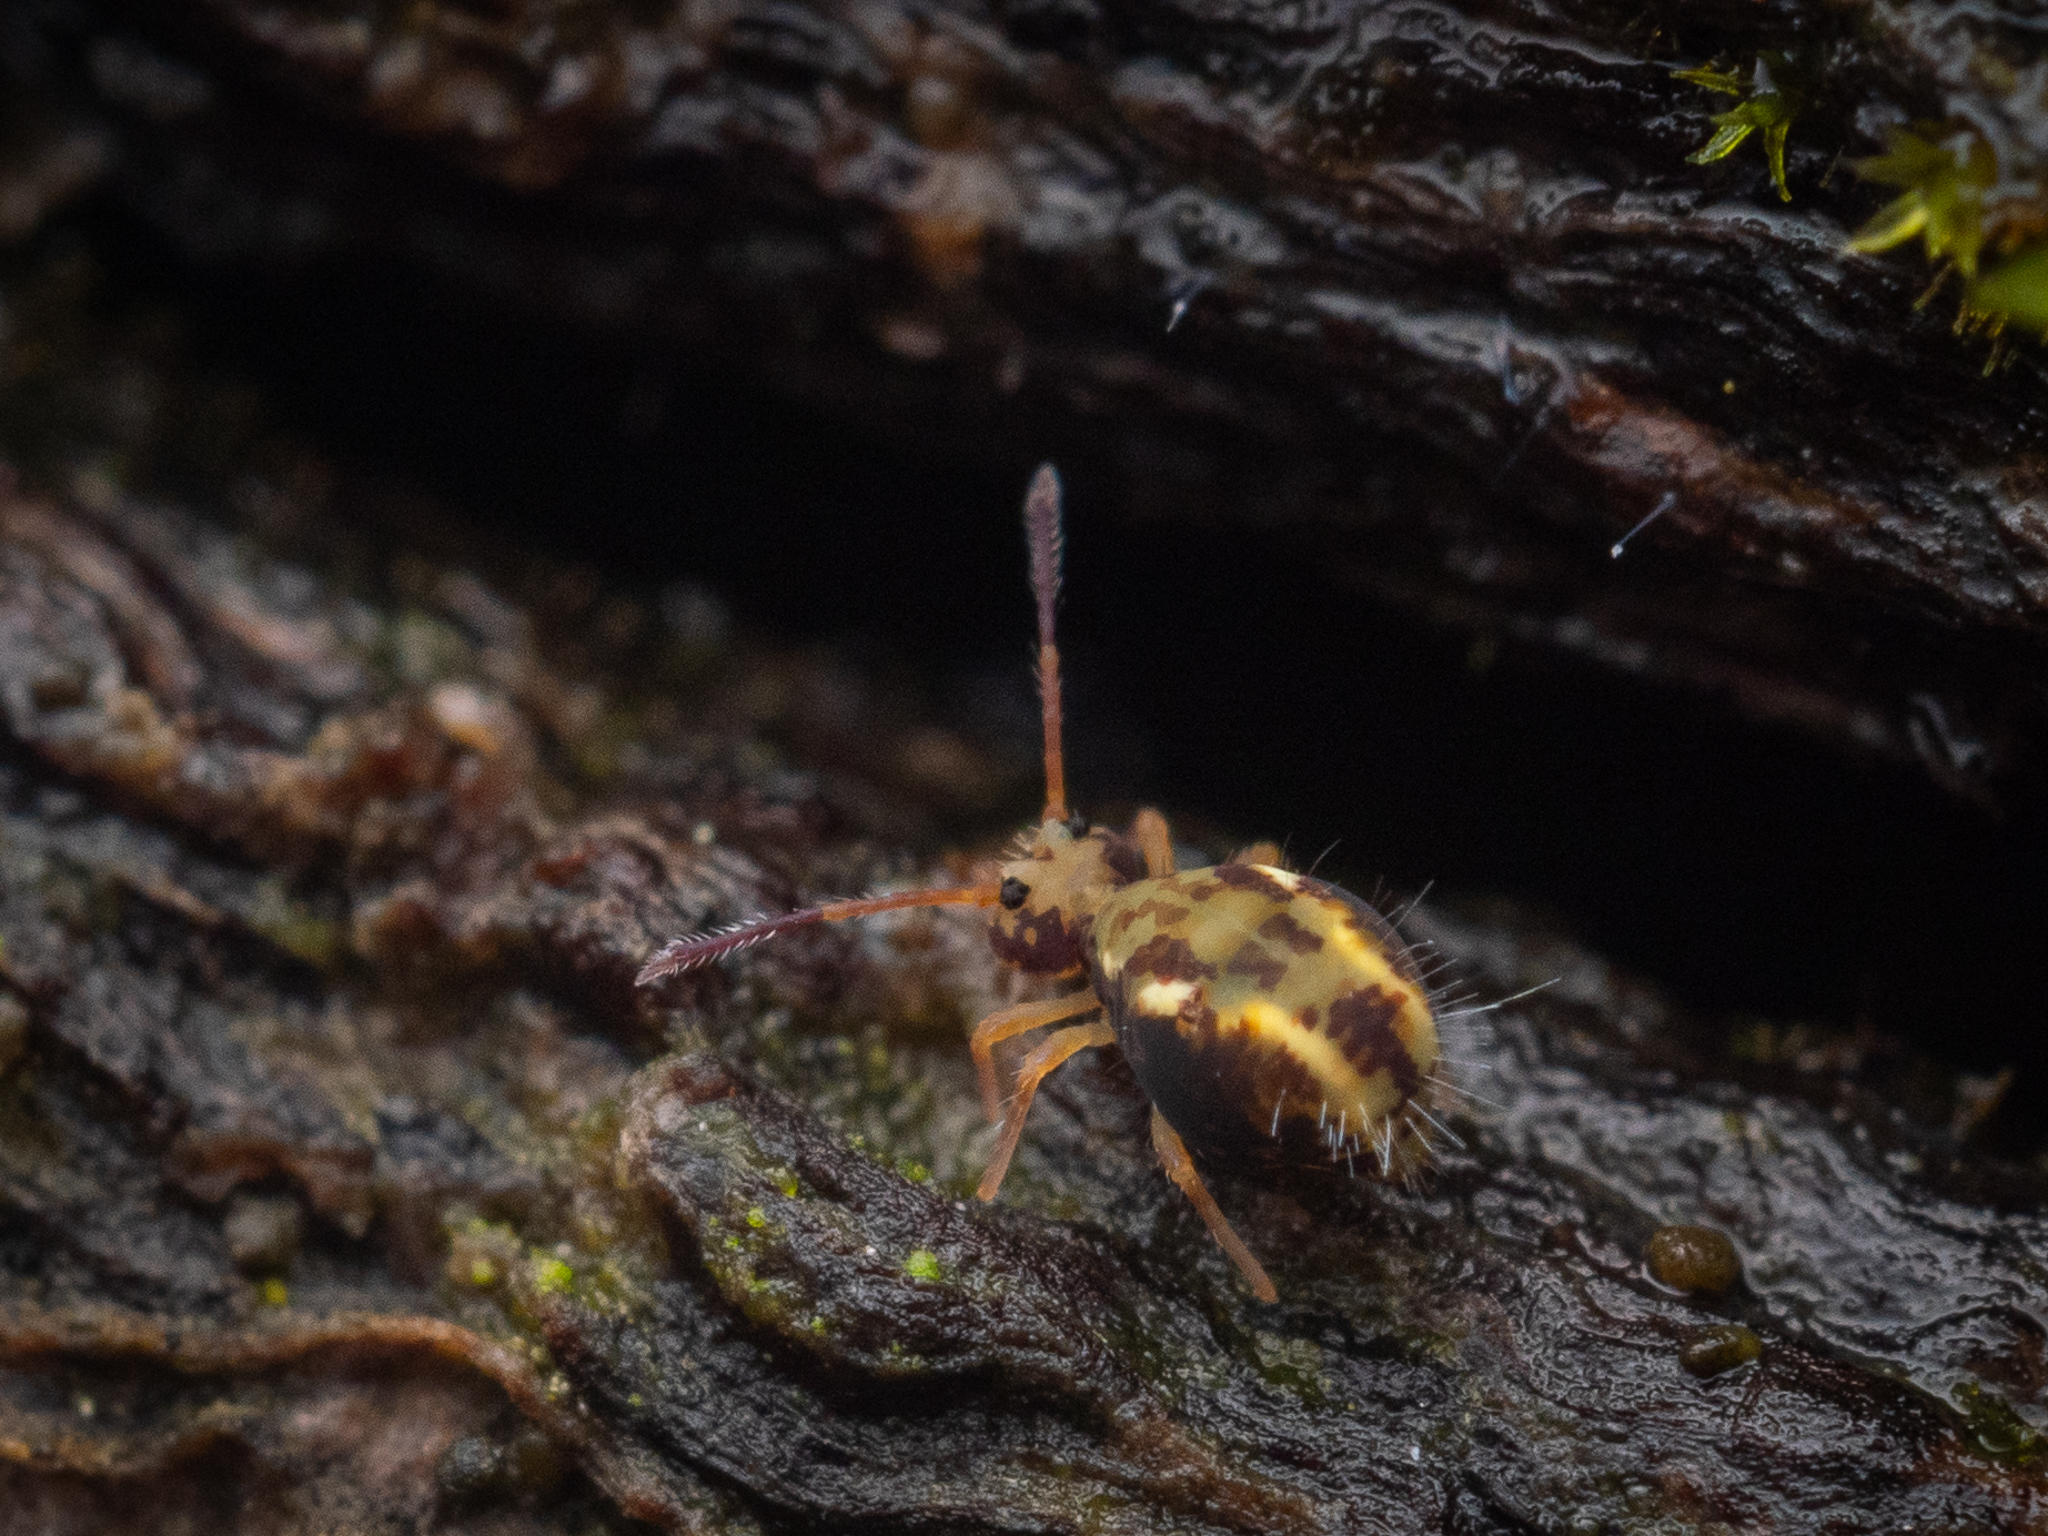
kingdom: Animalia
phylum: Arthropoda
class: Collembola
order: Symphypleona
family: Dicyrtomidae
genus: Dicyrtomina
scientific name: Dicyrtomina saundersi
